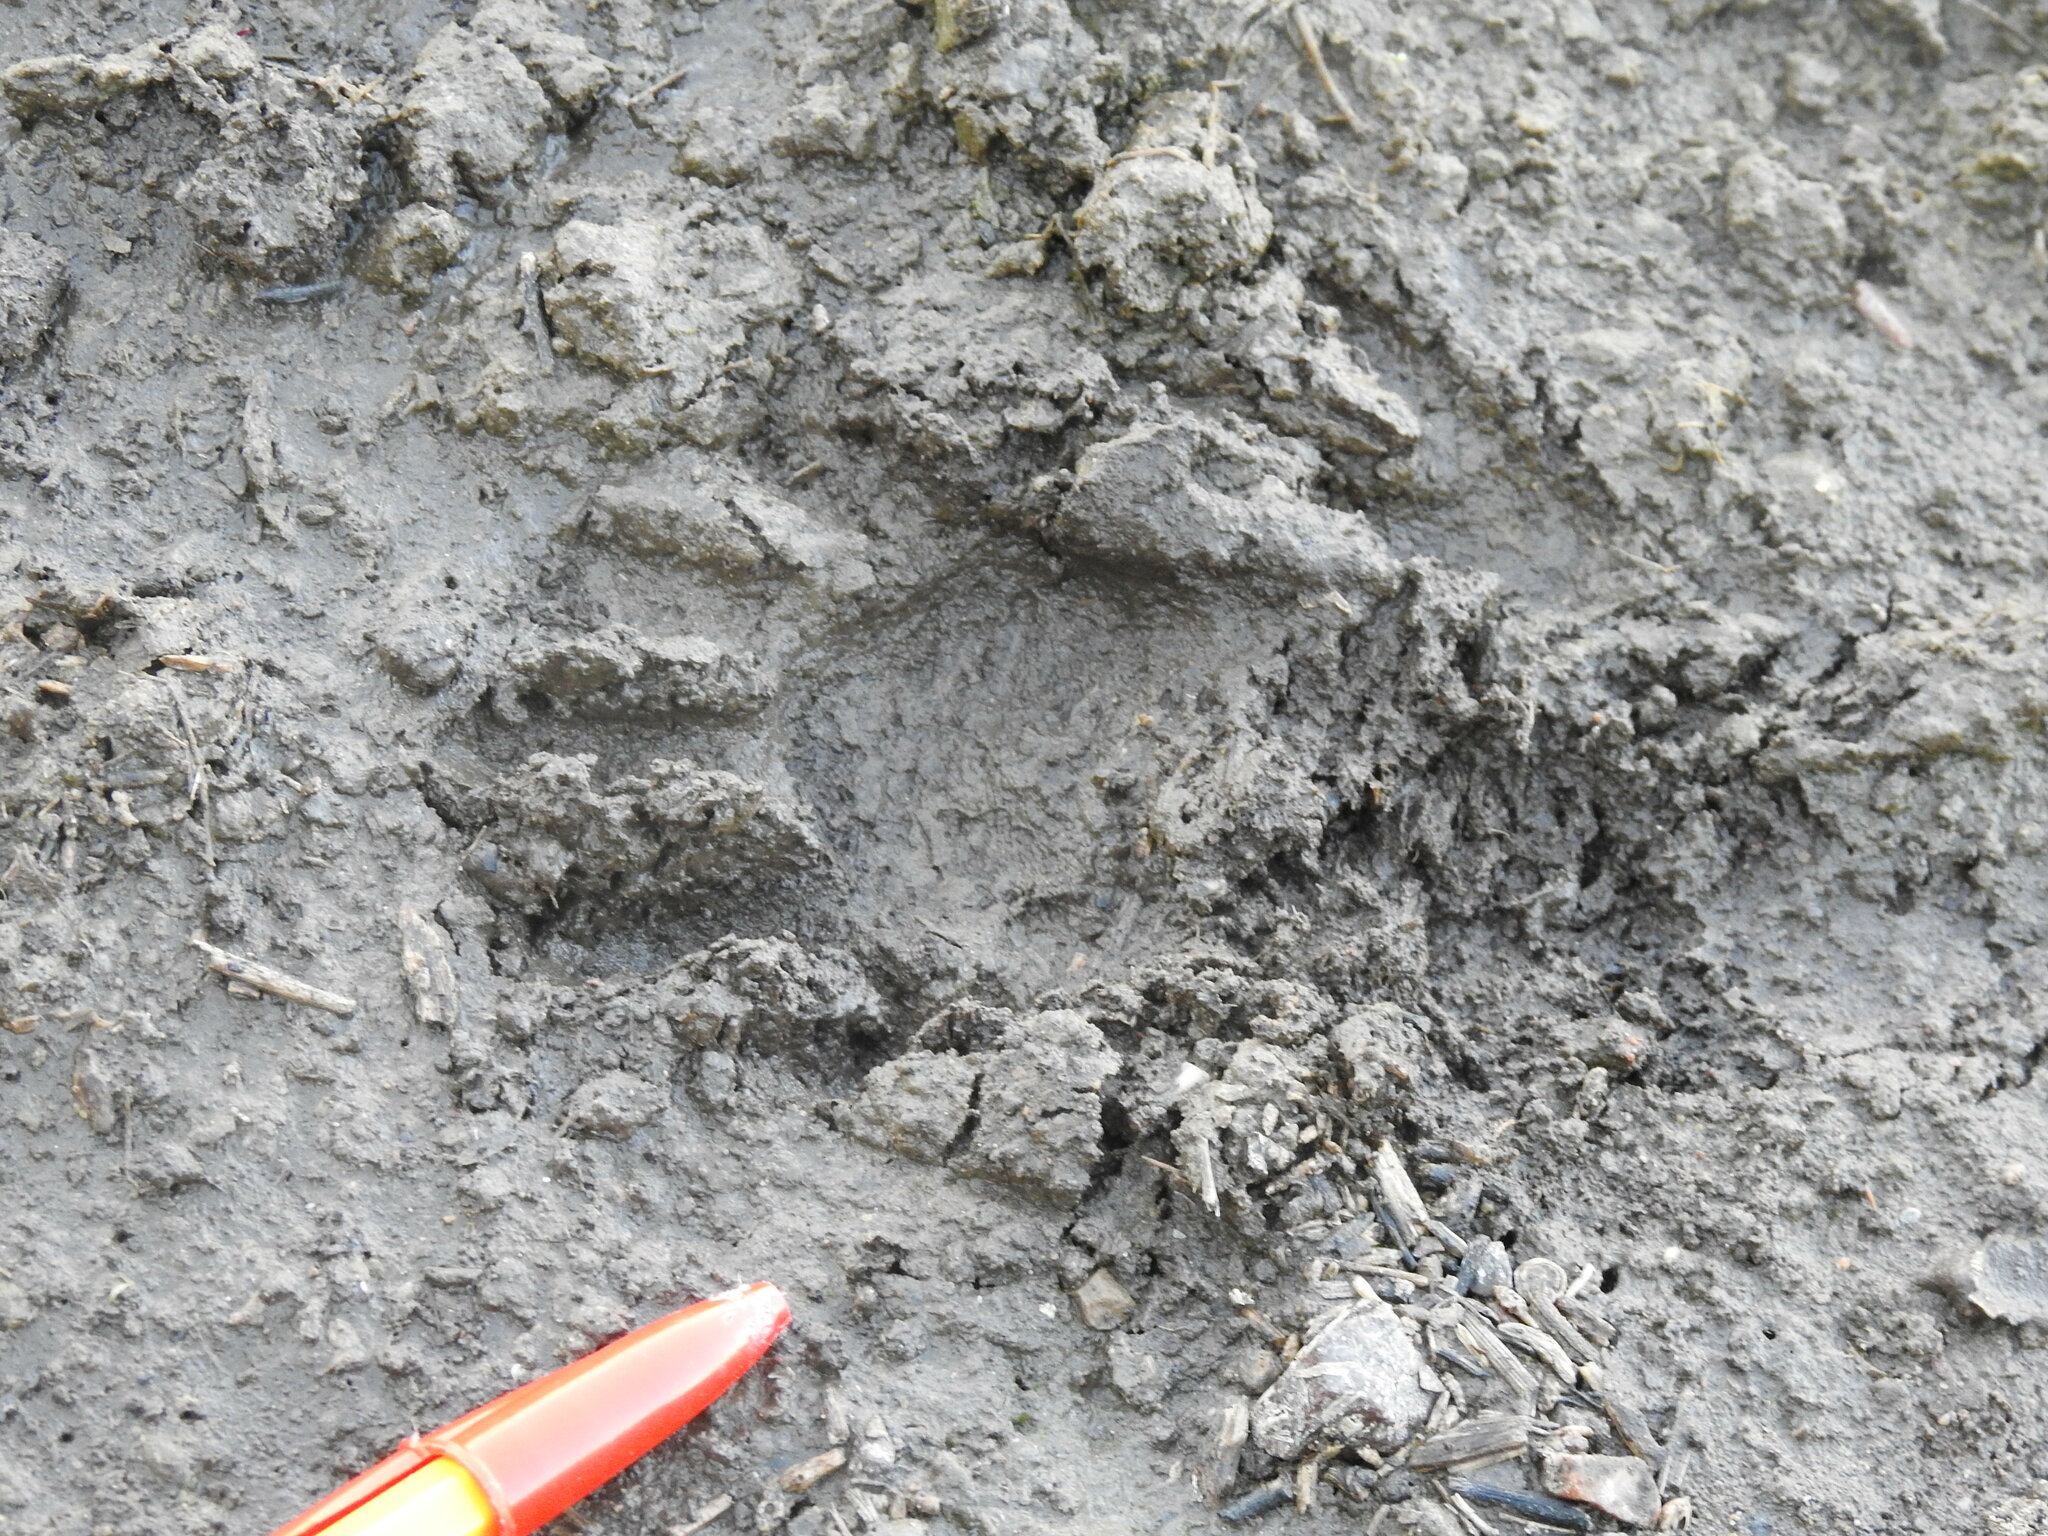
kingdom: Animalia
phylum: Chordata
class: Mammalia
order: Carnivora
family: Procyonidae
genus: Procyon
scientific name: Procyon lotor
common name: Raccoon
